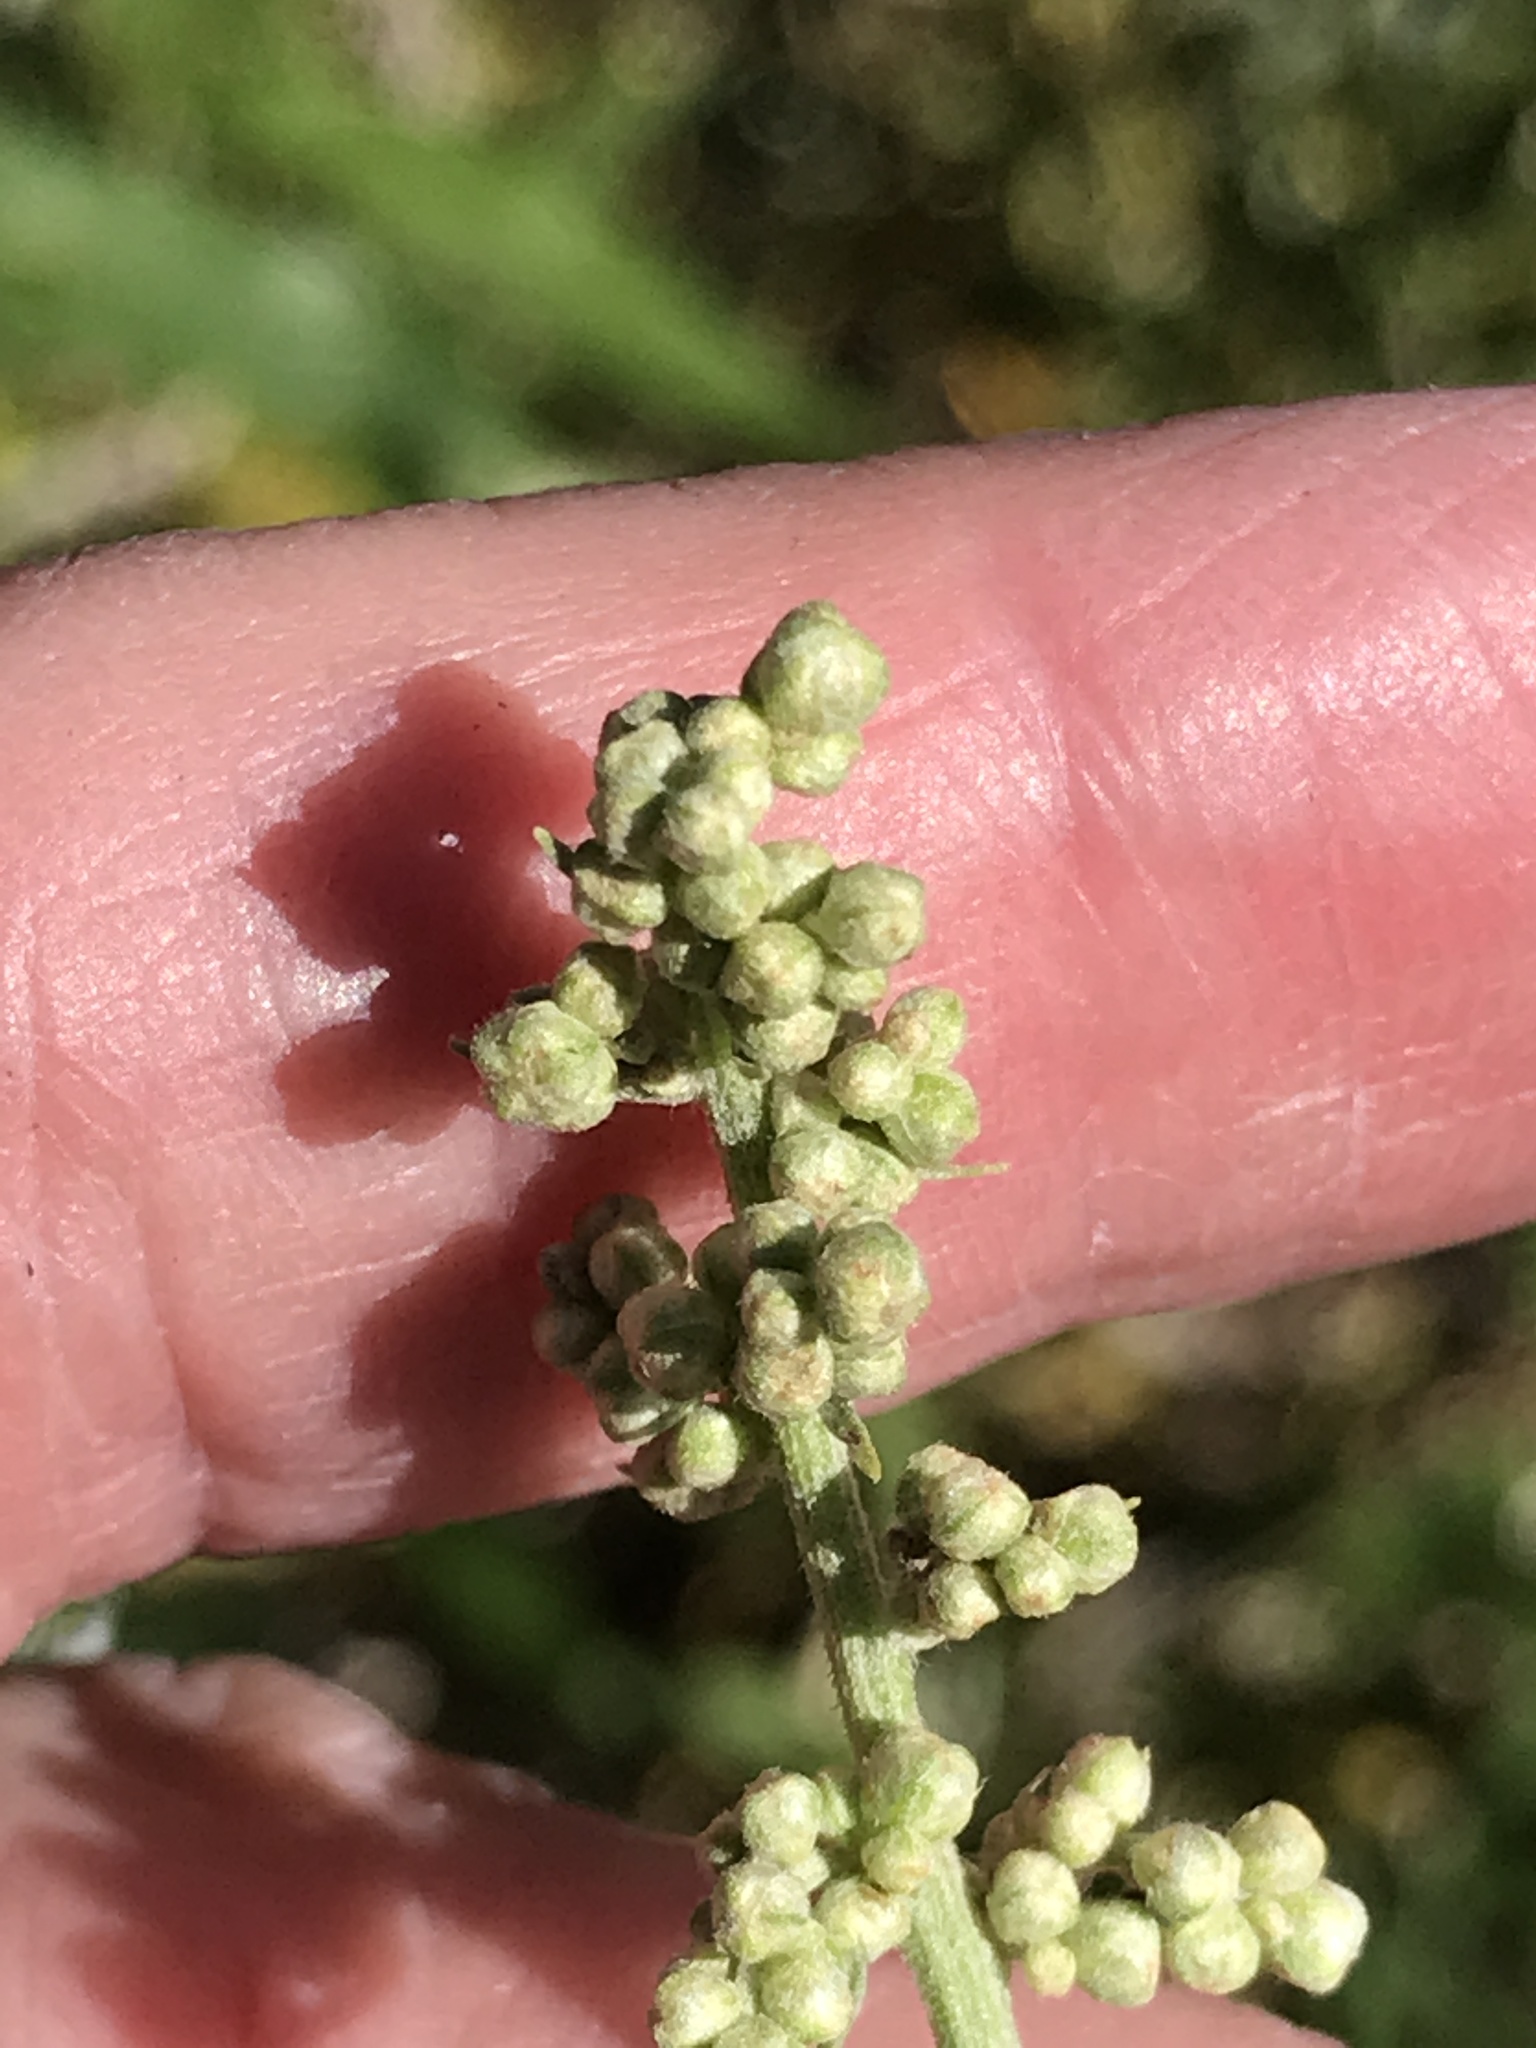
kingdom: Plantae
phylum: Tracheophyta
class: Magnoliopsida
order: Asterales
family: Asteraceae
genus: Artemisia
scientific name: Artemisia douglasiana
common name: Northwest mugwort
